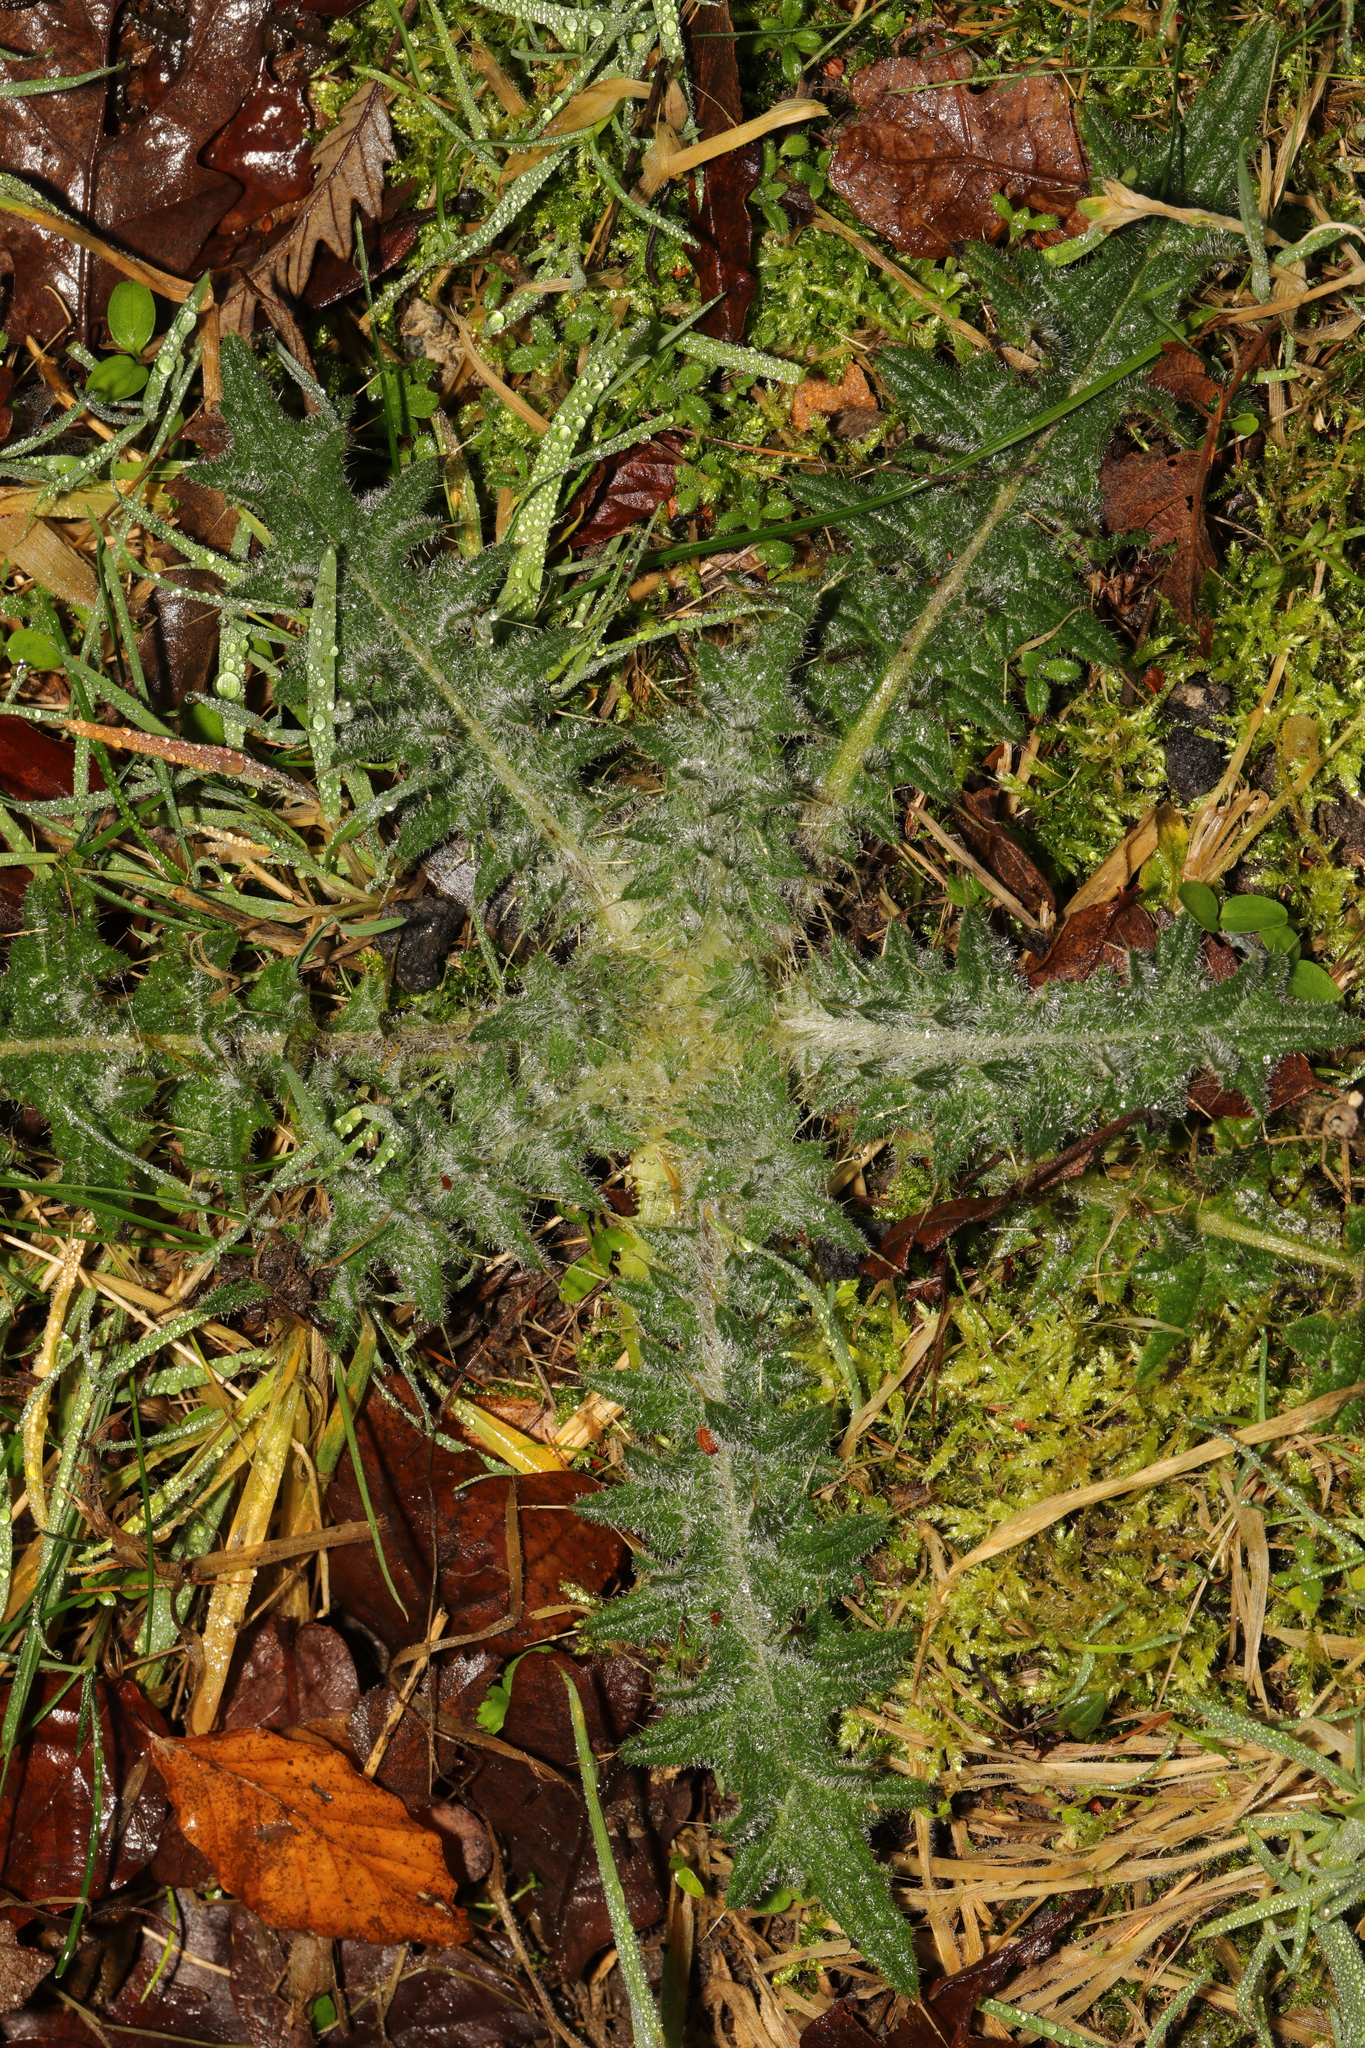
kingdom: Plantae
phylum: Tracheophyta
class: Magnoliopsida
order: Asterales
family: Asteraceae
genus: Cirsium
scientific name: Cirsium vulgare
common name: Bull thistle
